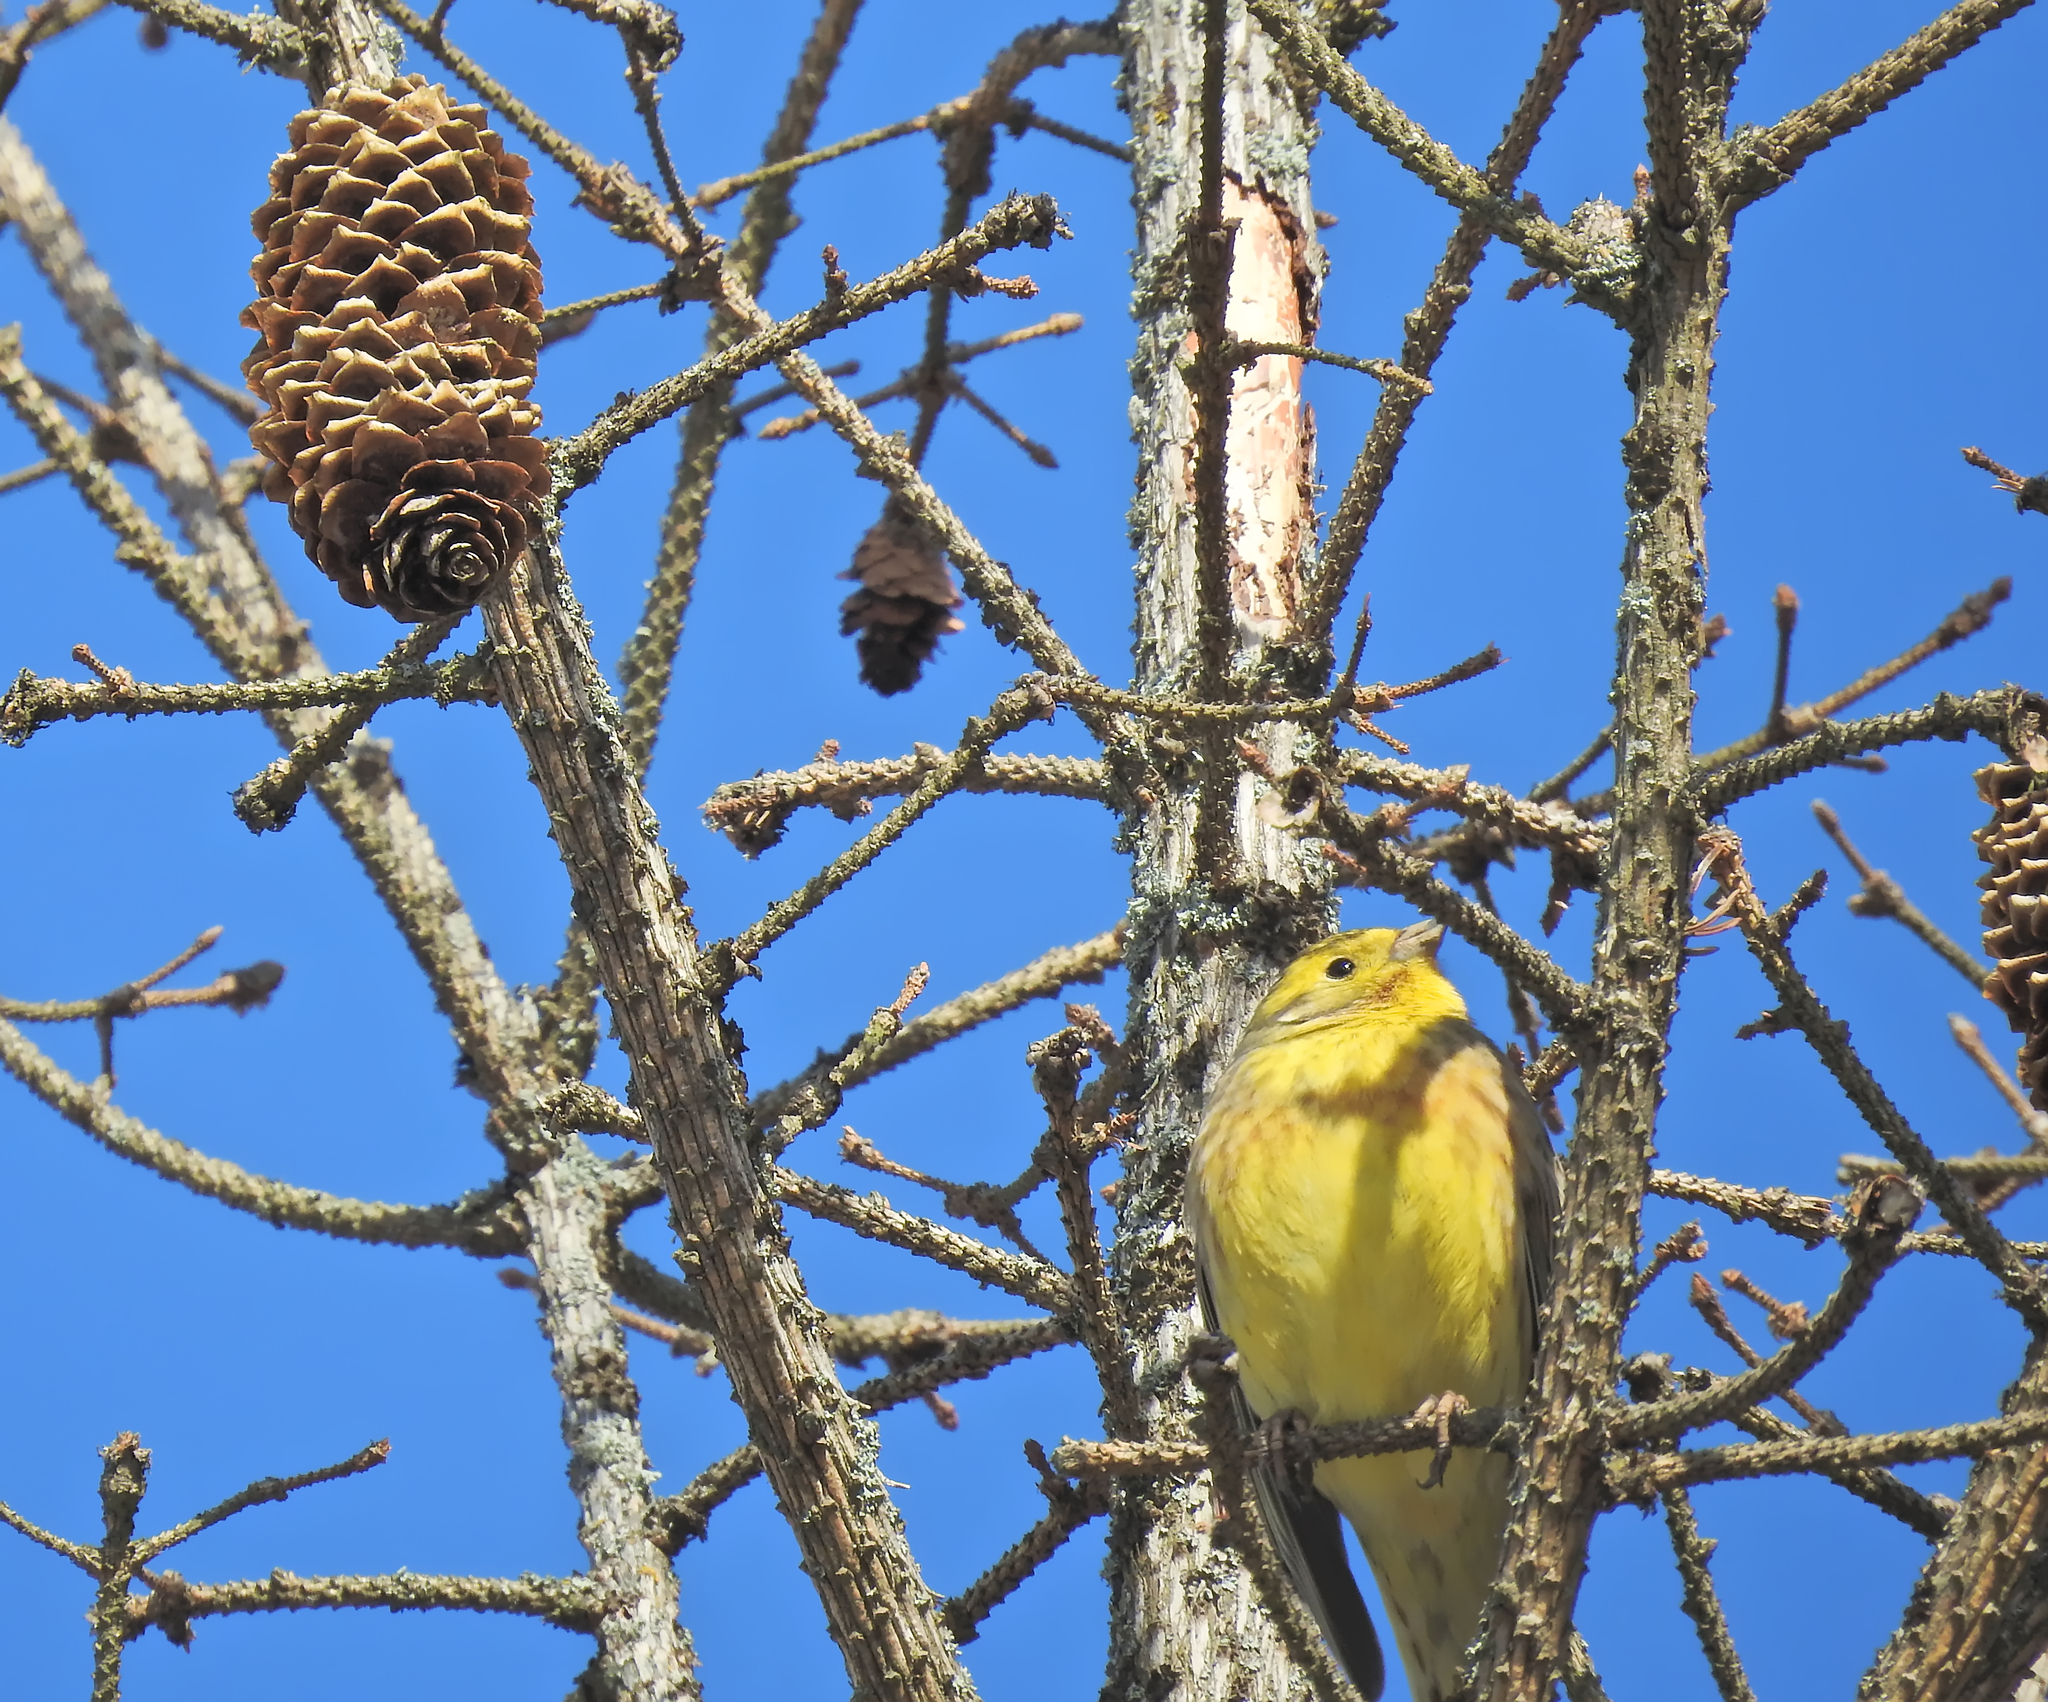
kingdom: Animalia
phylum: Chordata
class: Aves
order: Passeriformes
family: Emberizidae
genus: Emberiza
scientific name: Emberiza citrinella
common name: Yellowhammer
